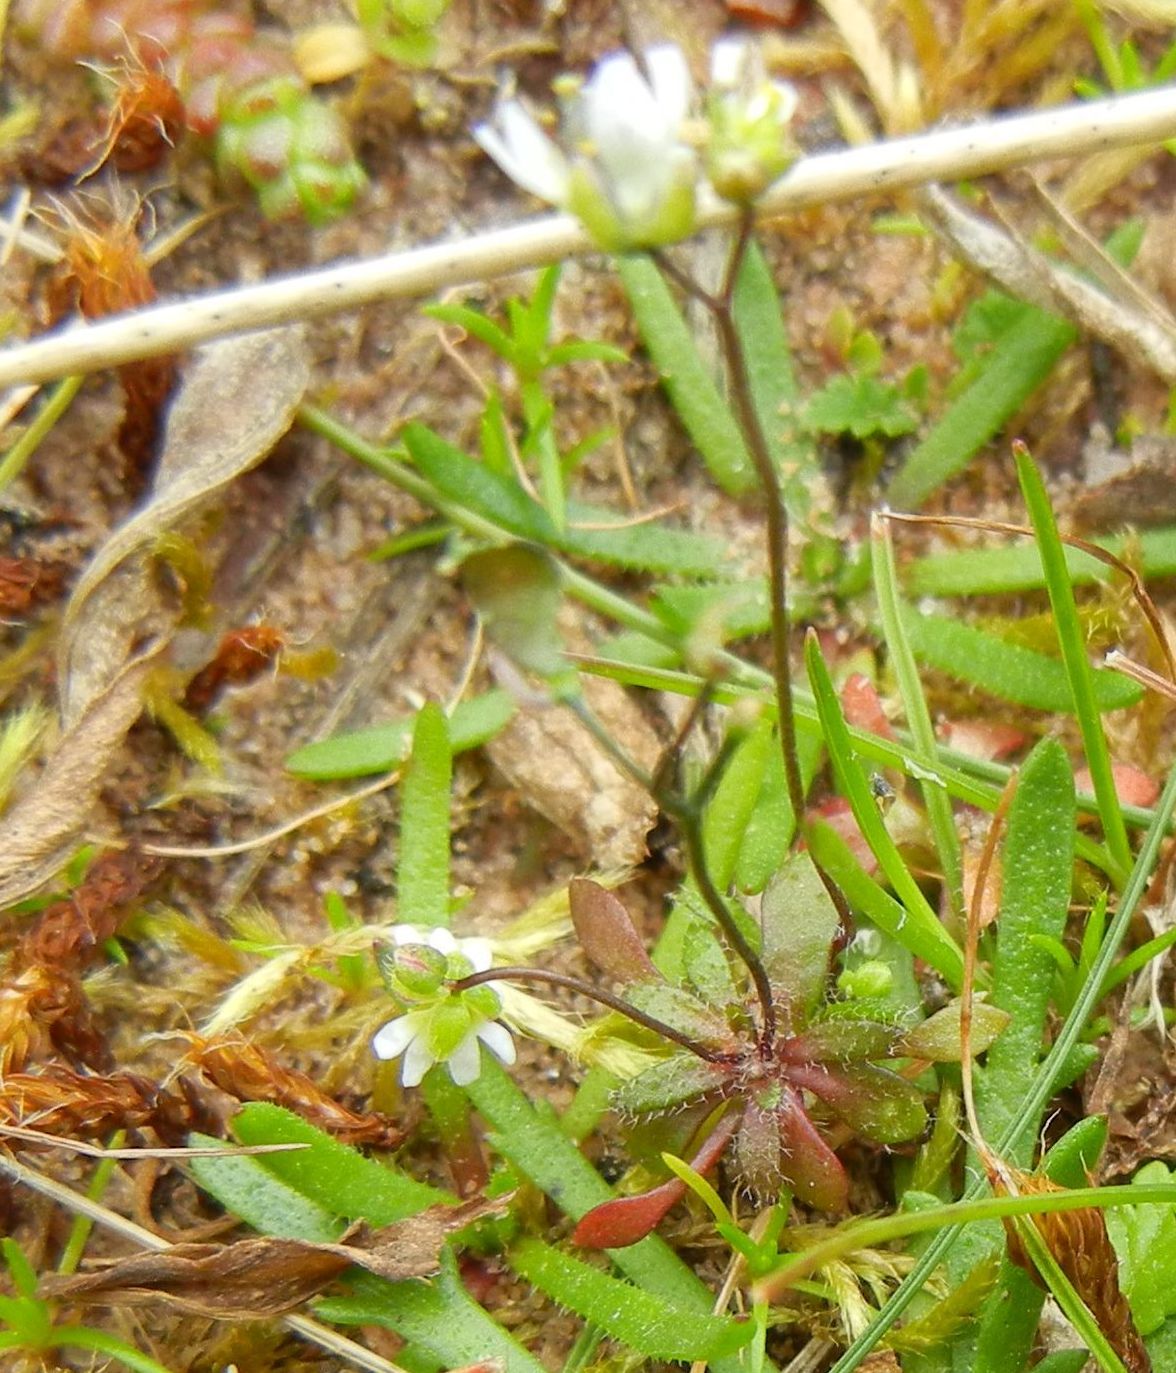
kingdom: Plantae
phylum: Tracheophyta
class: Magnoliopsida
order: Brassicales
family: Brassicaceae
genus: Draba
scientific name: Draba verna
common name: Spring draba
